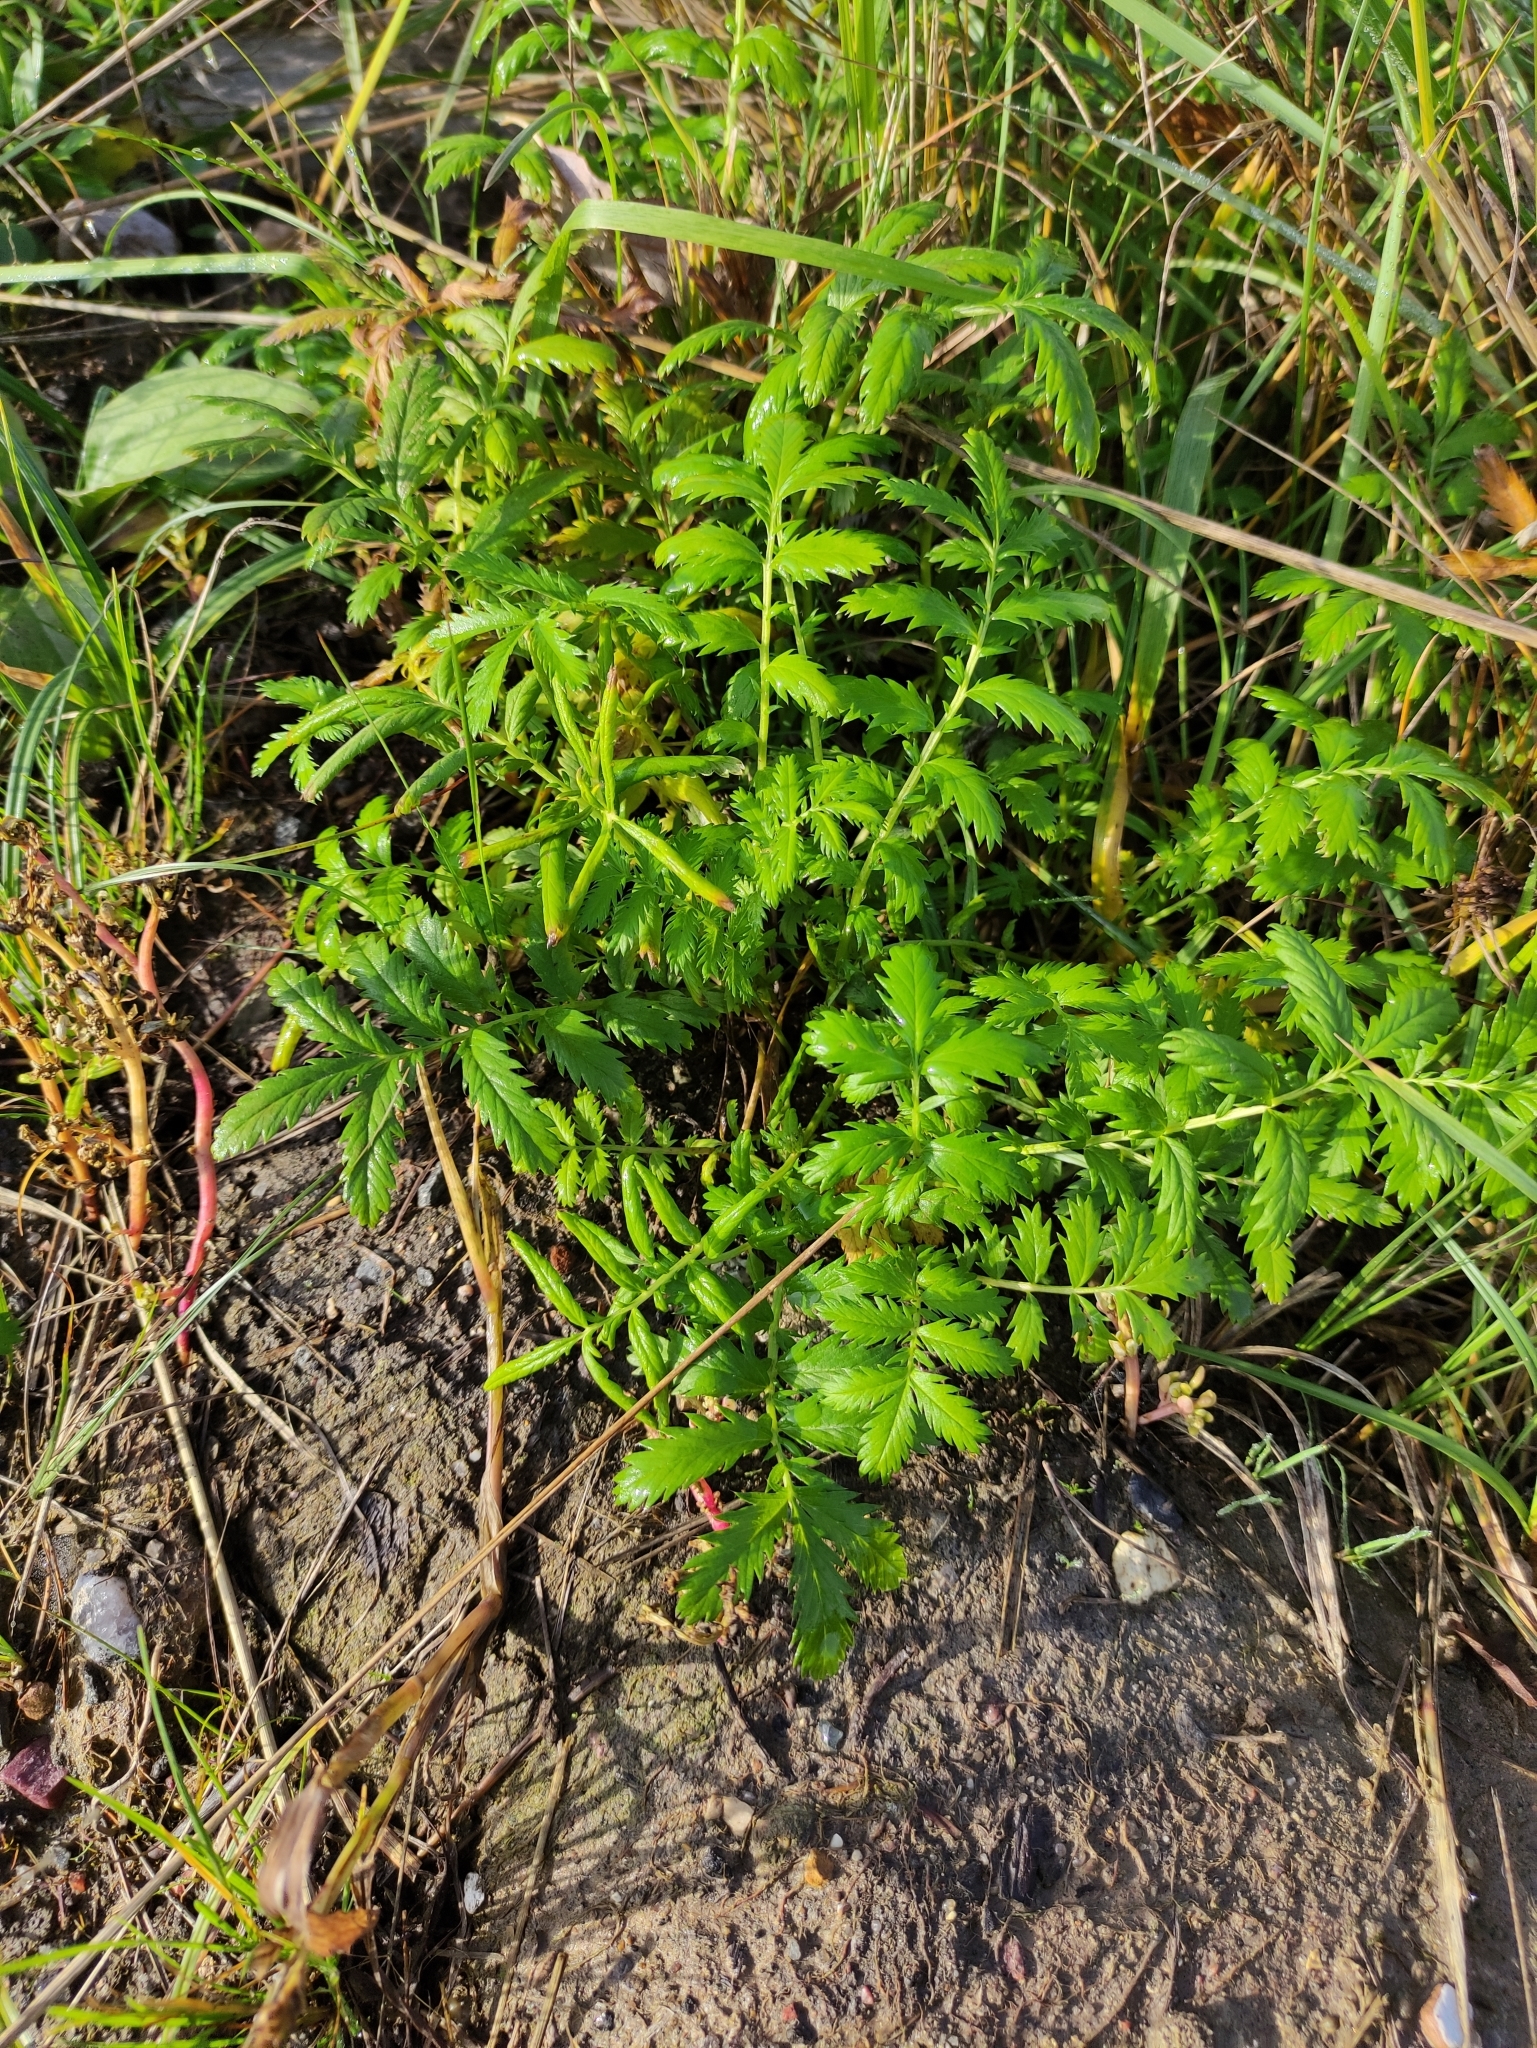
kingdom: Plantae
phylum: Tracheophyta
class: Magnoliopsida
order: Rosales
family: Rosaceae
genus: Argentina
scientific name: Argentina anserina
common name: Common silverweed
